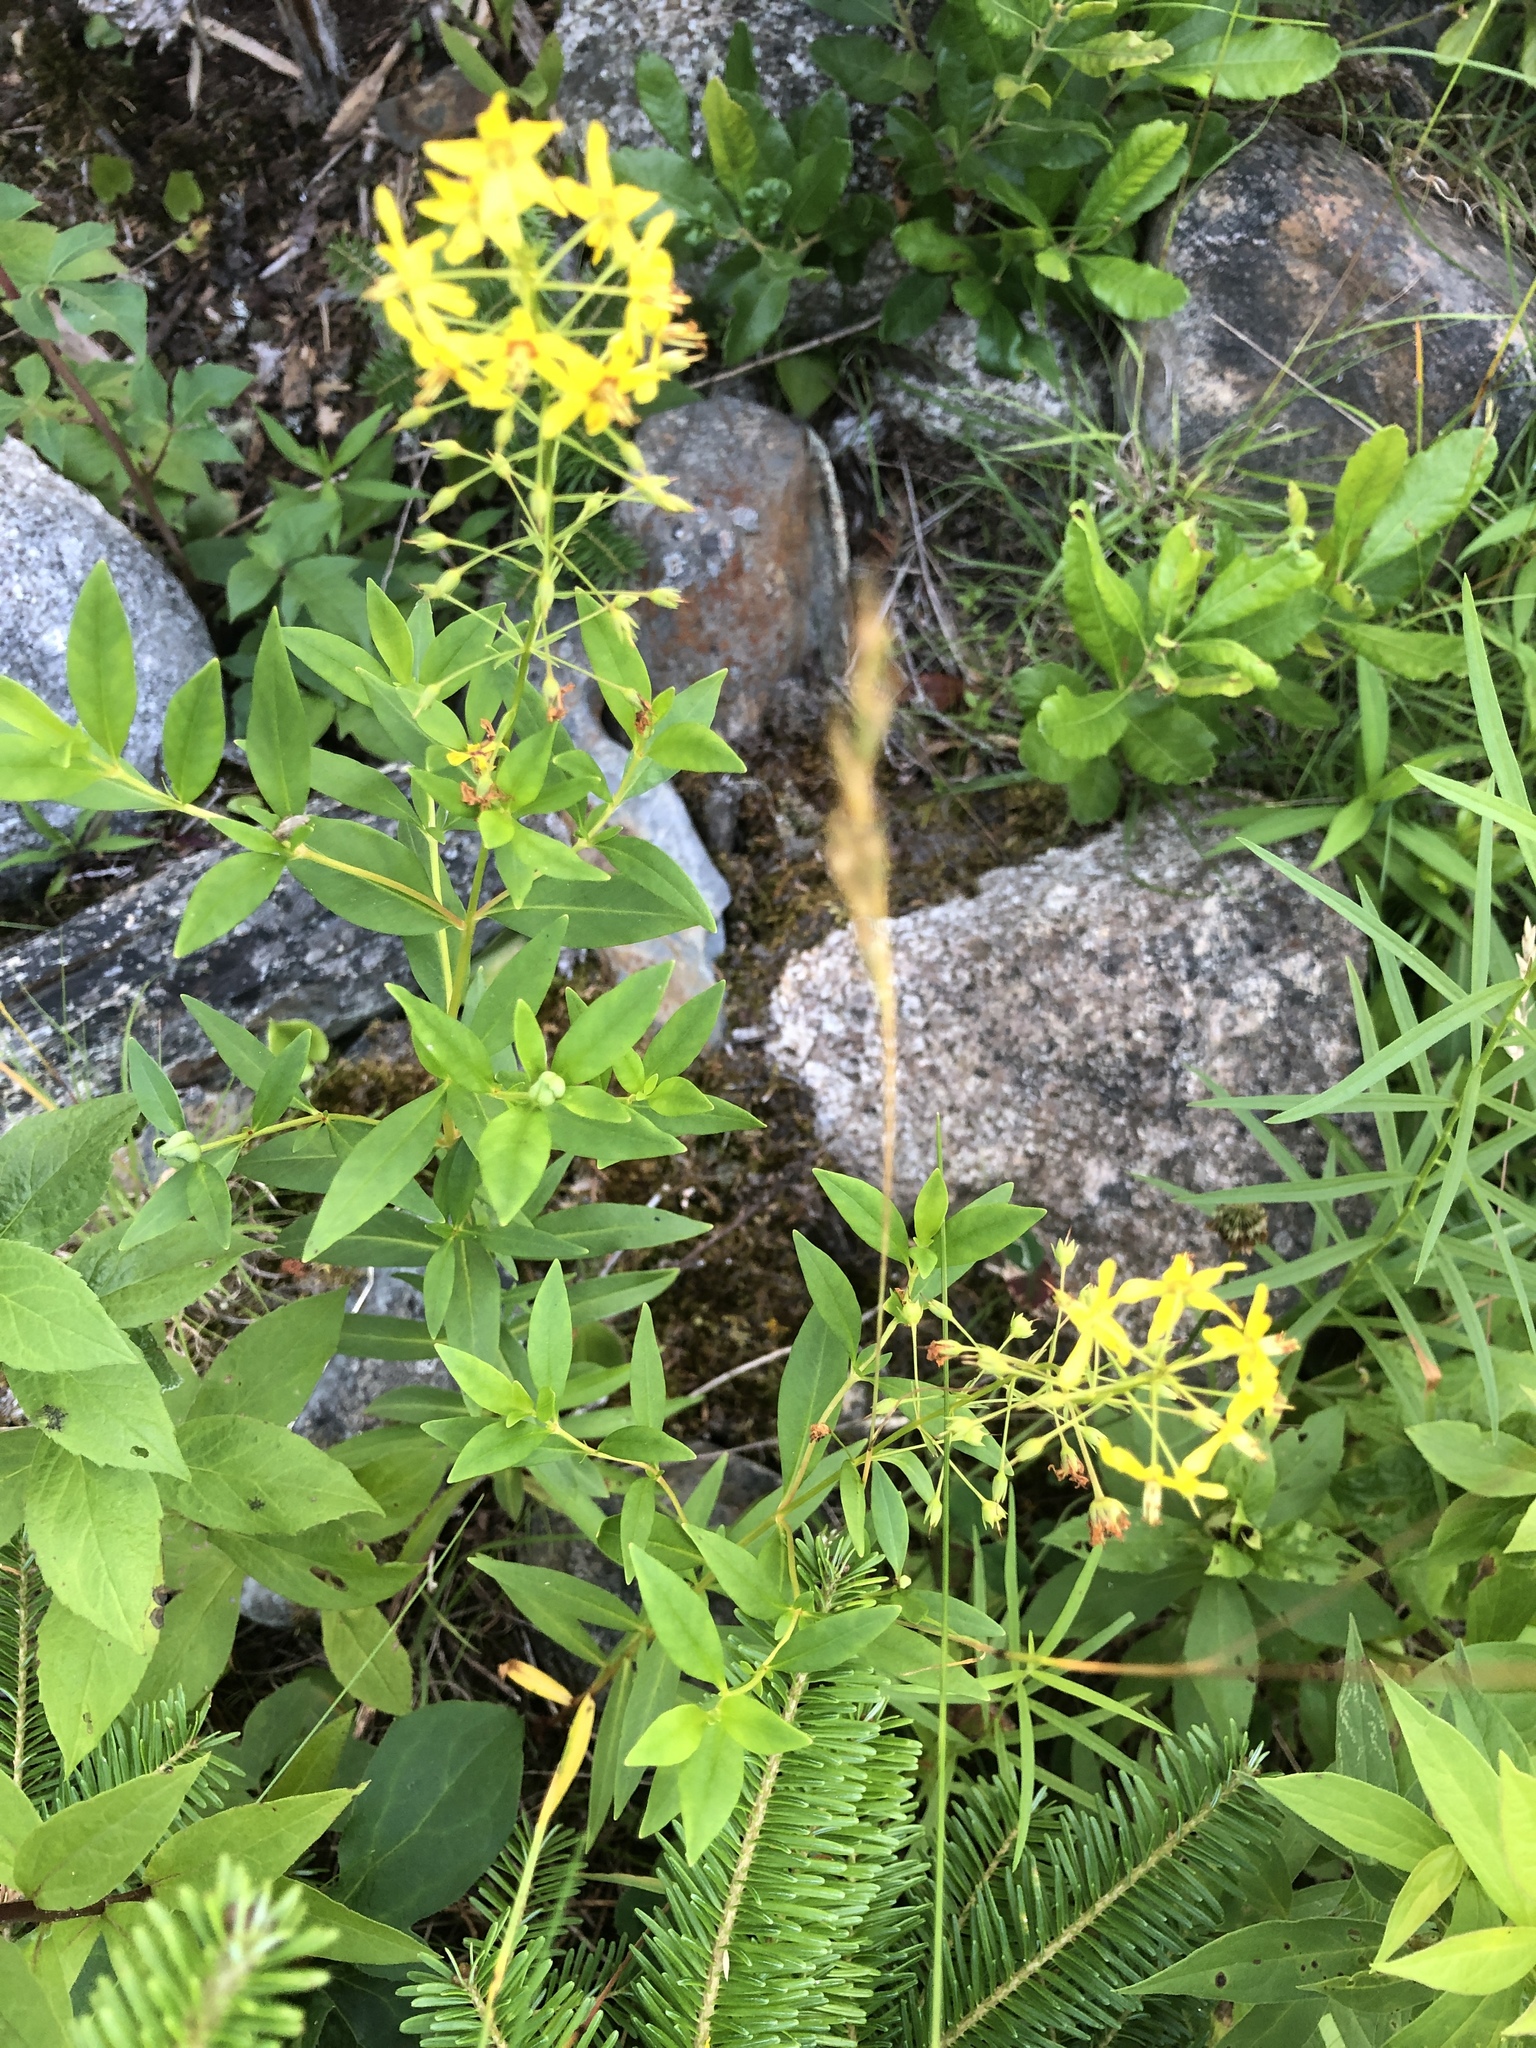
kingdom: Plantae
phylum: Tracheophyta
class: Magnoliopsida
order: Ericales
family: Primulaceae
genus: Lysimachia
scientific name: Lysimachia terrestris
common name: Lake loosestrife
